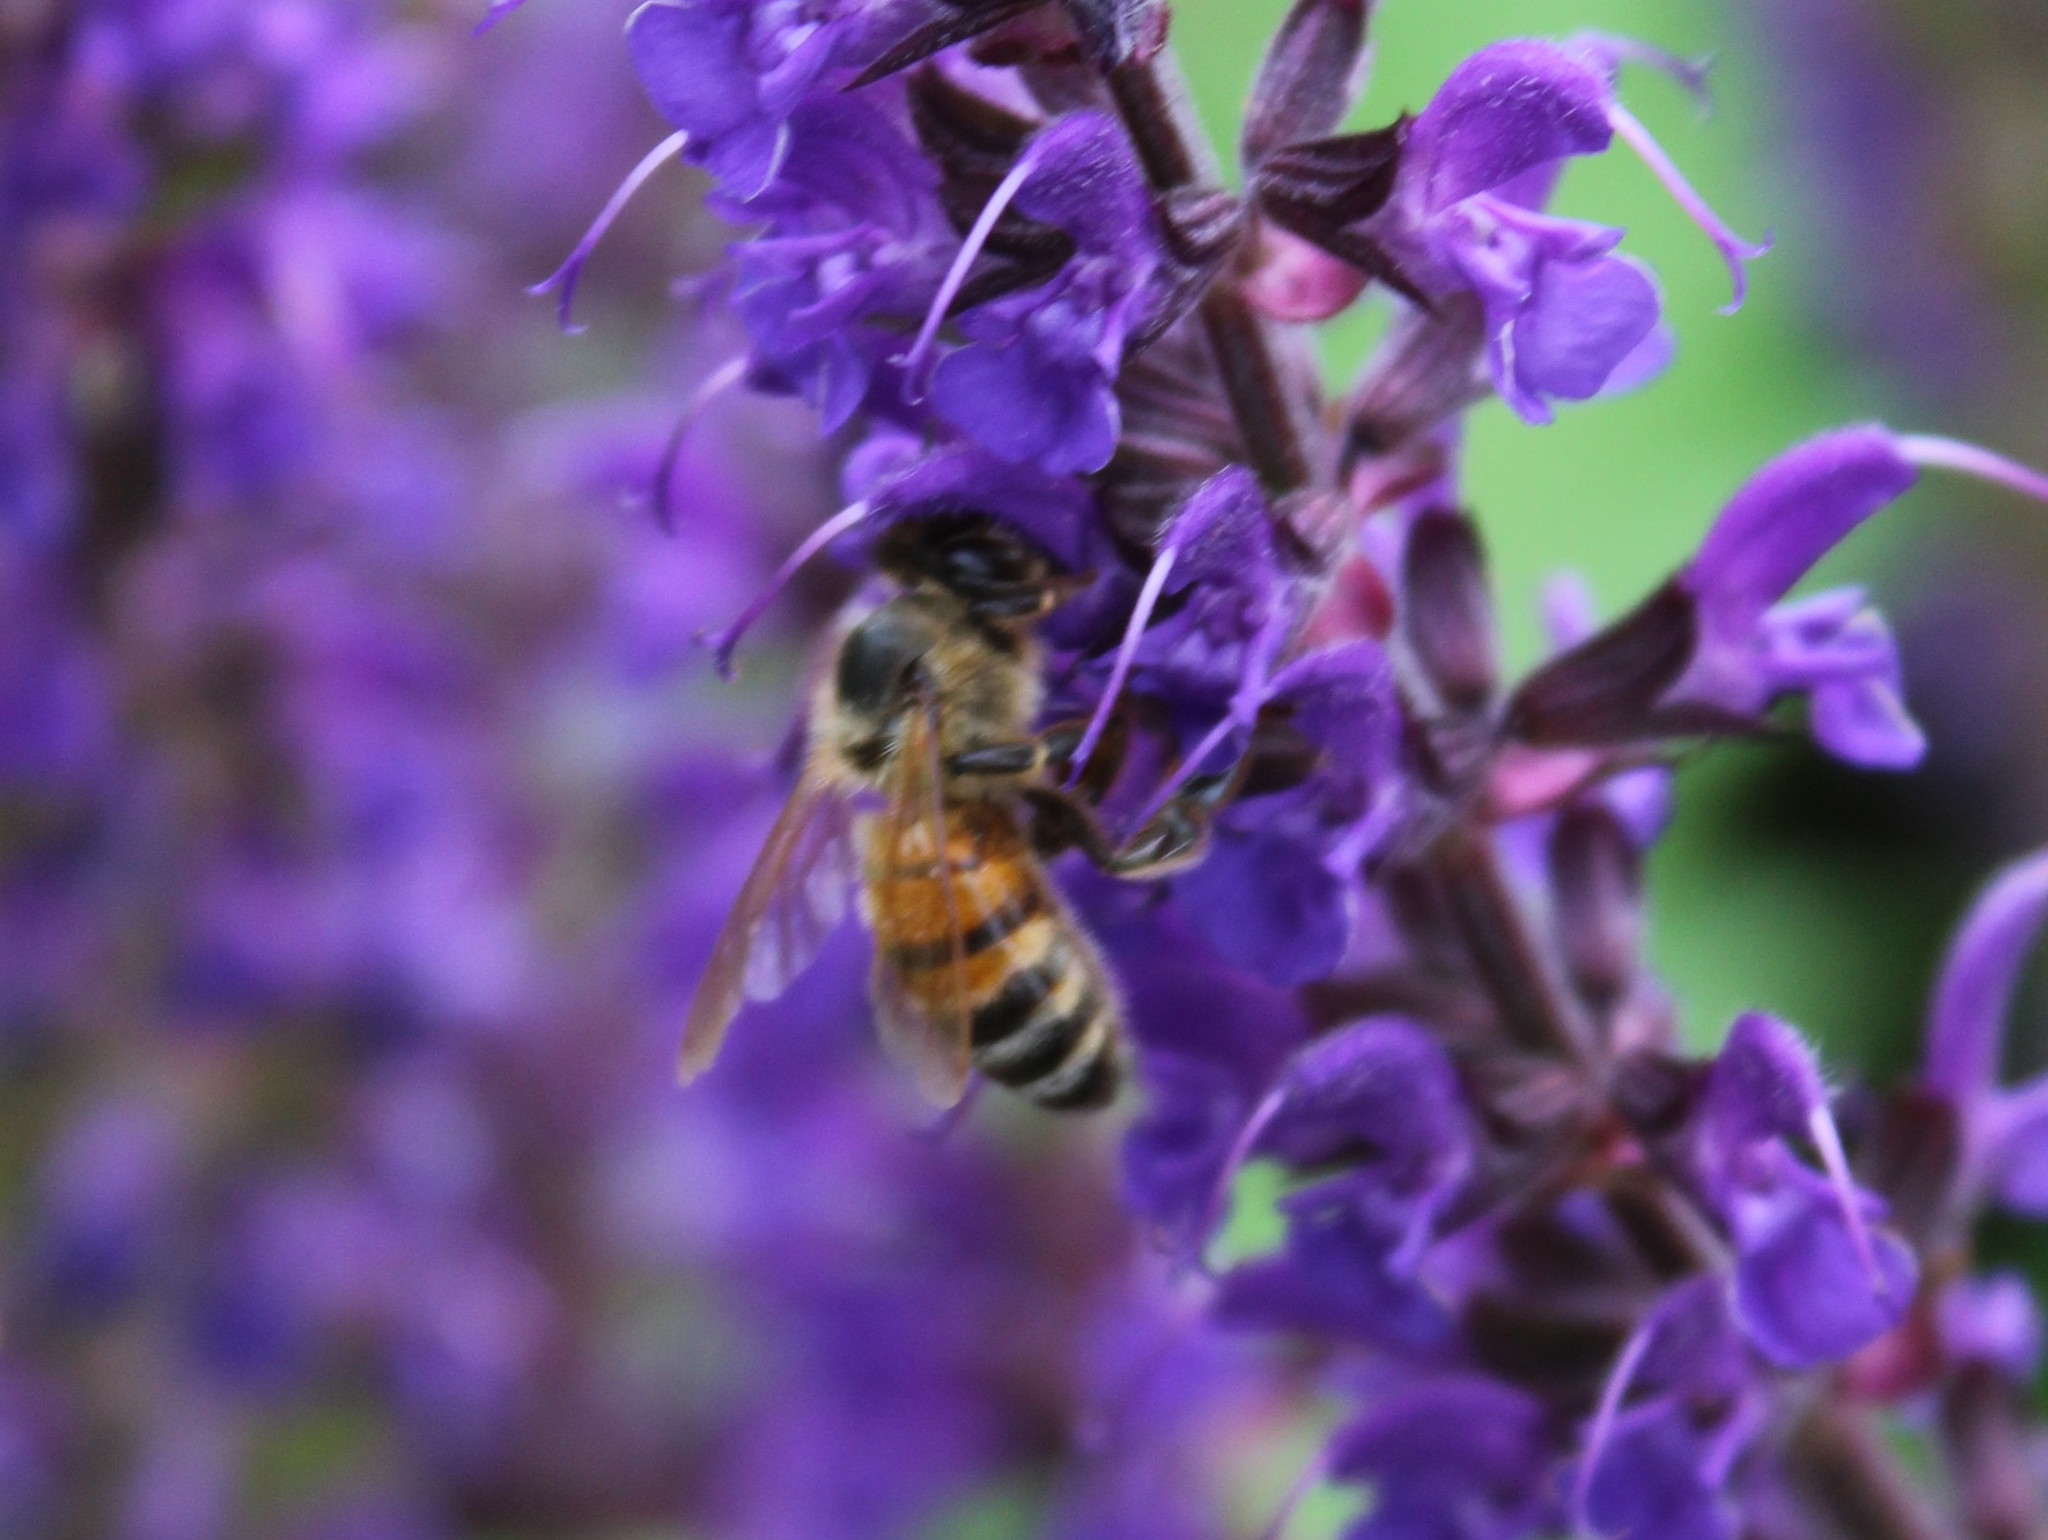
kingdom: Animalia
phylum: Arthropoda
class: Insecta
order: Hymenoptera
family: Apidae
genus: Apis
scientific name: Apis mellifera
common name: Honey bee
